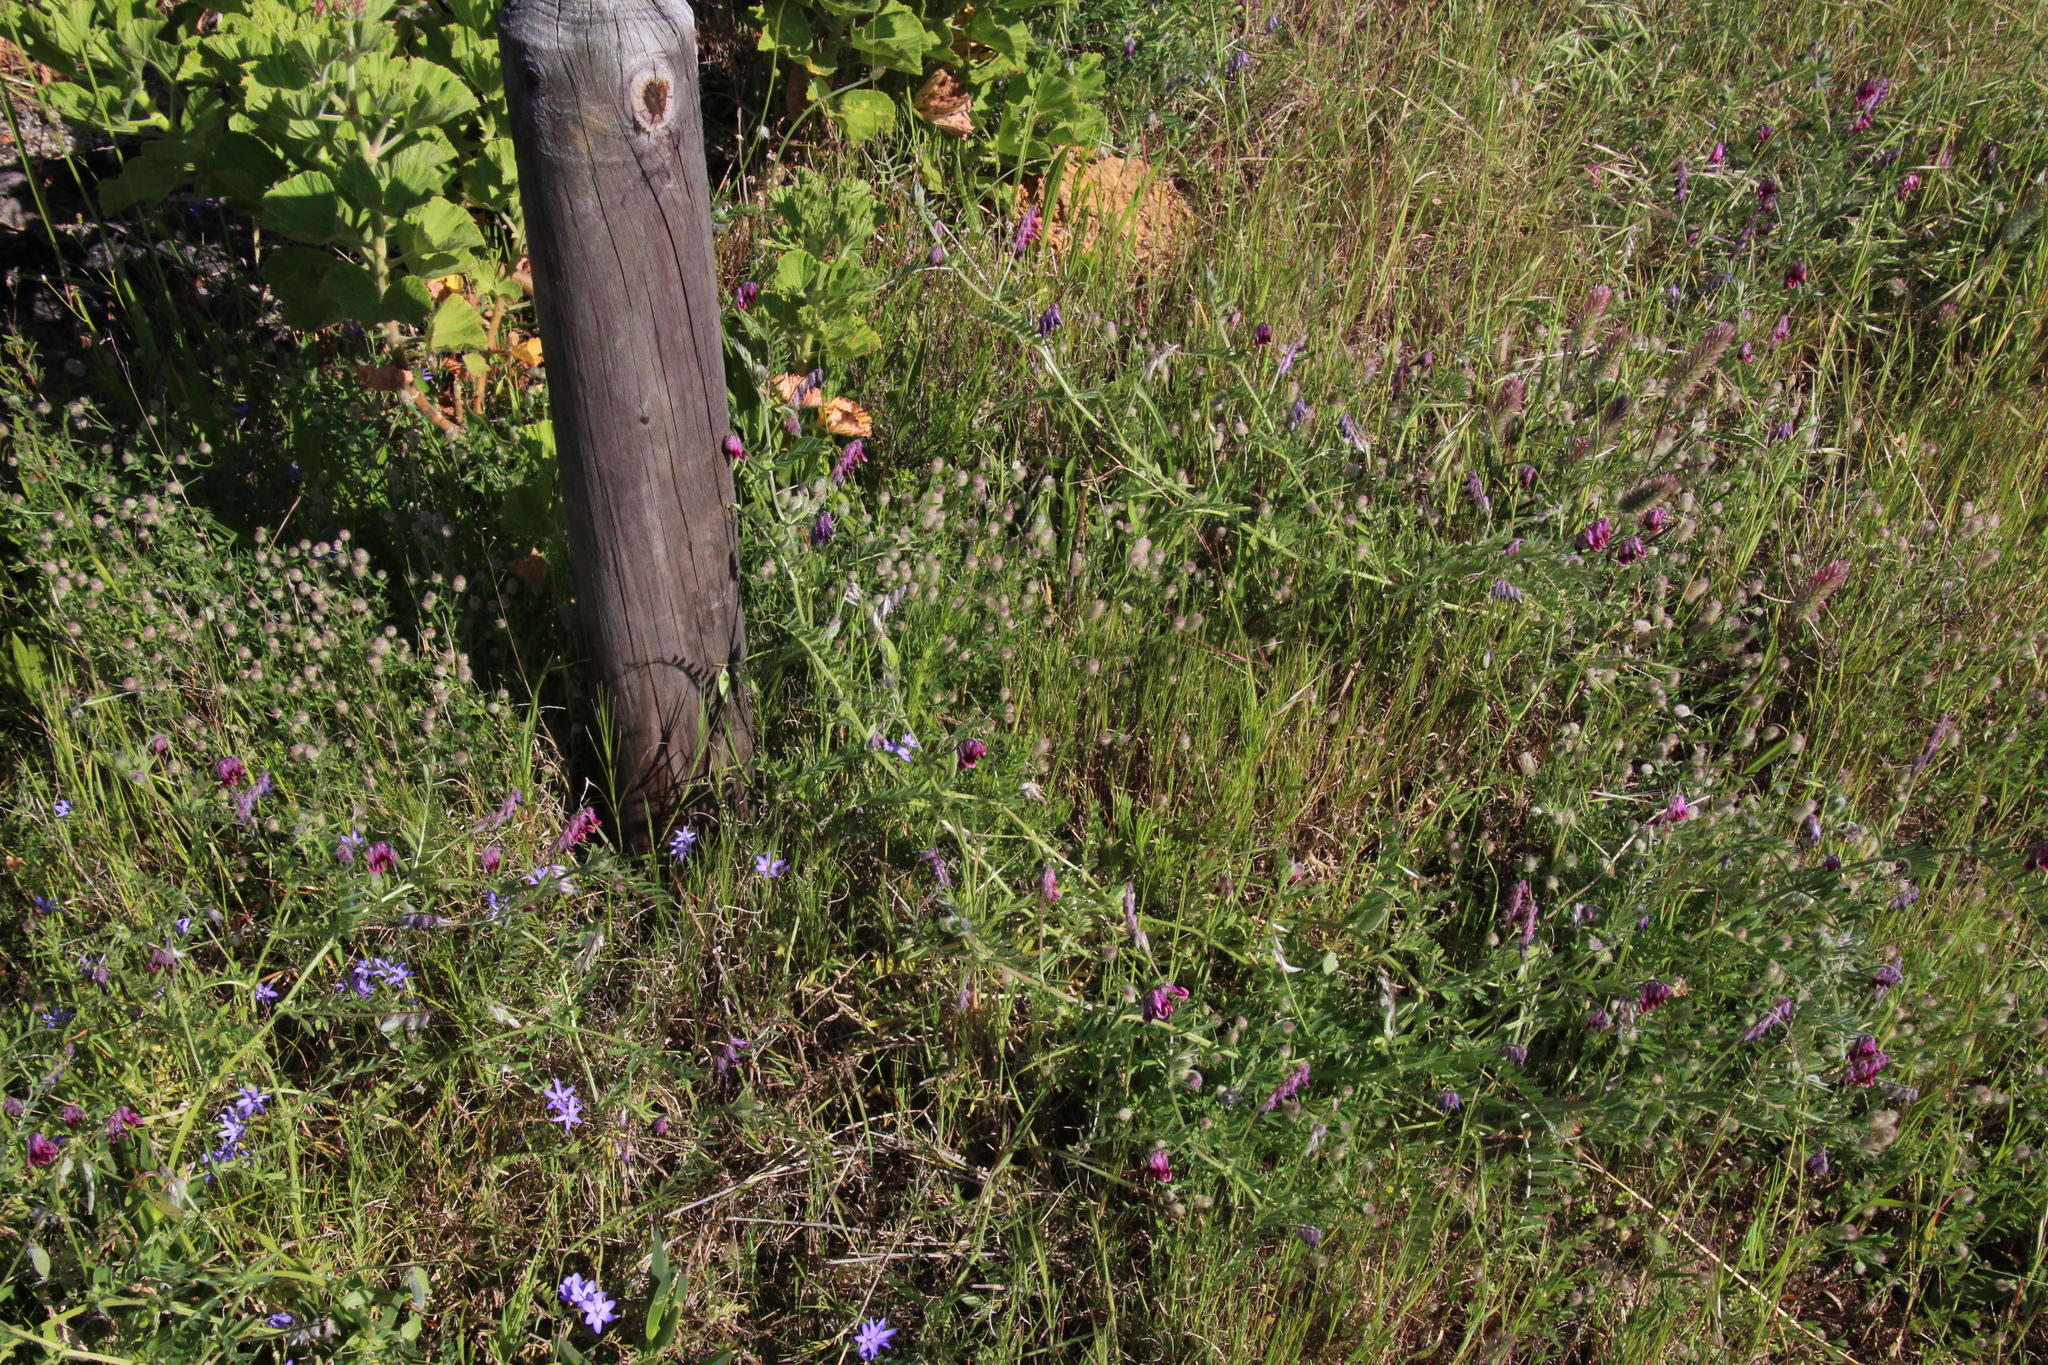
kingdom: Plantae
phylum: Tracheophyta
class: Magnoliopsida
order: Fabales
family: Fabaceae
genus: Vicia
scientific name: Vicia benghalensis
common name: Purple vetch
